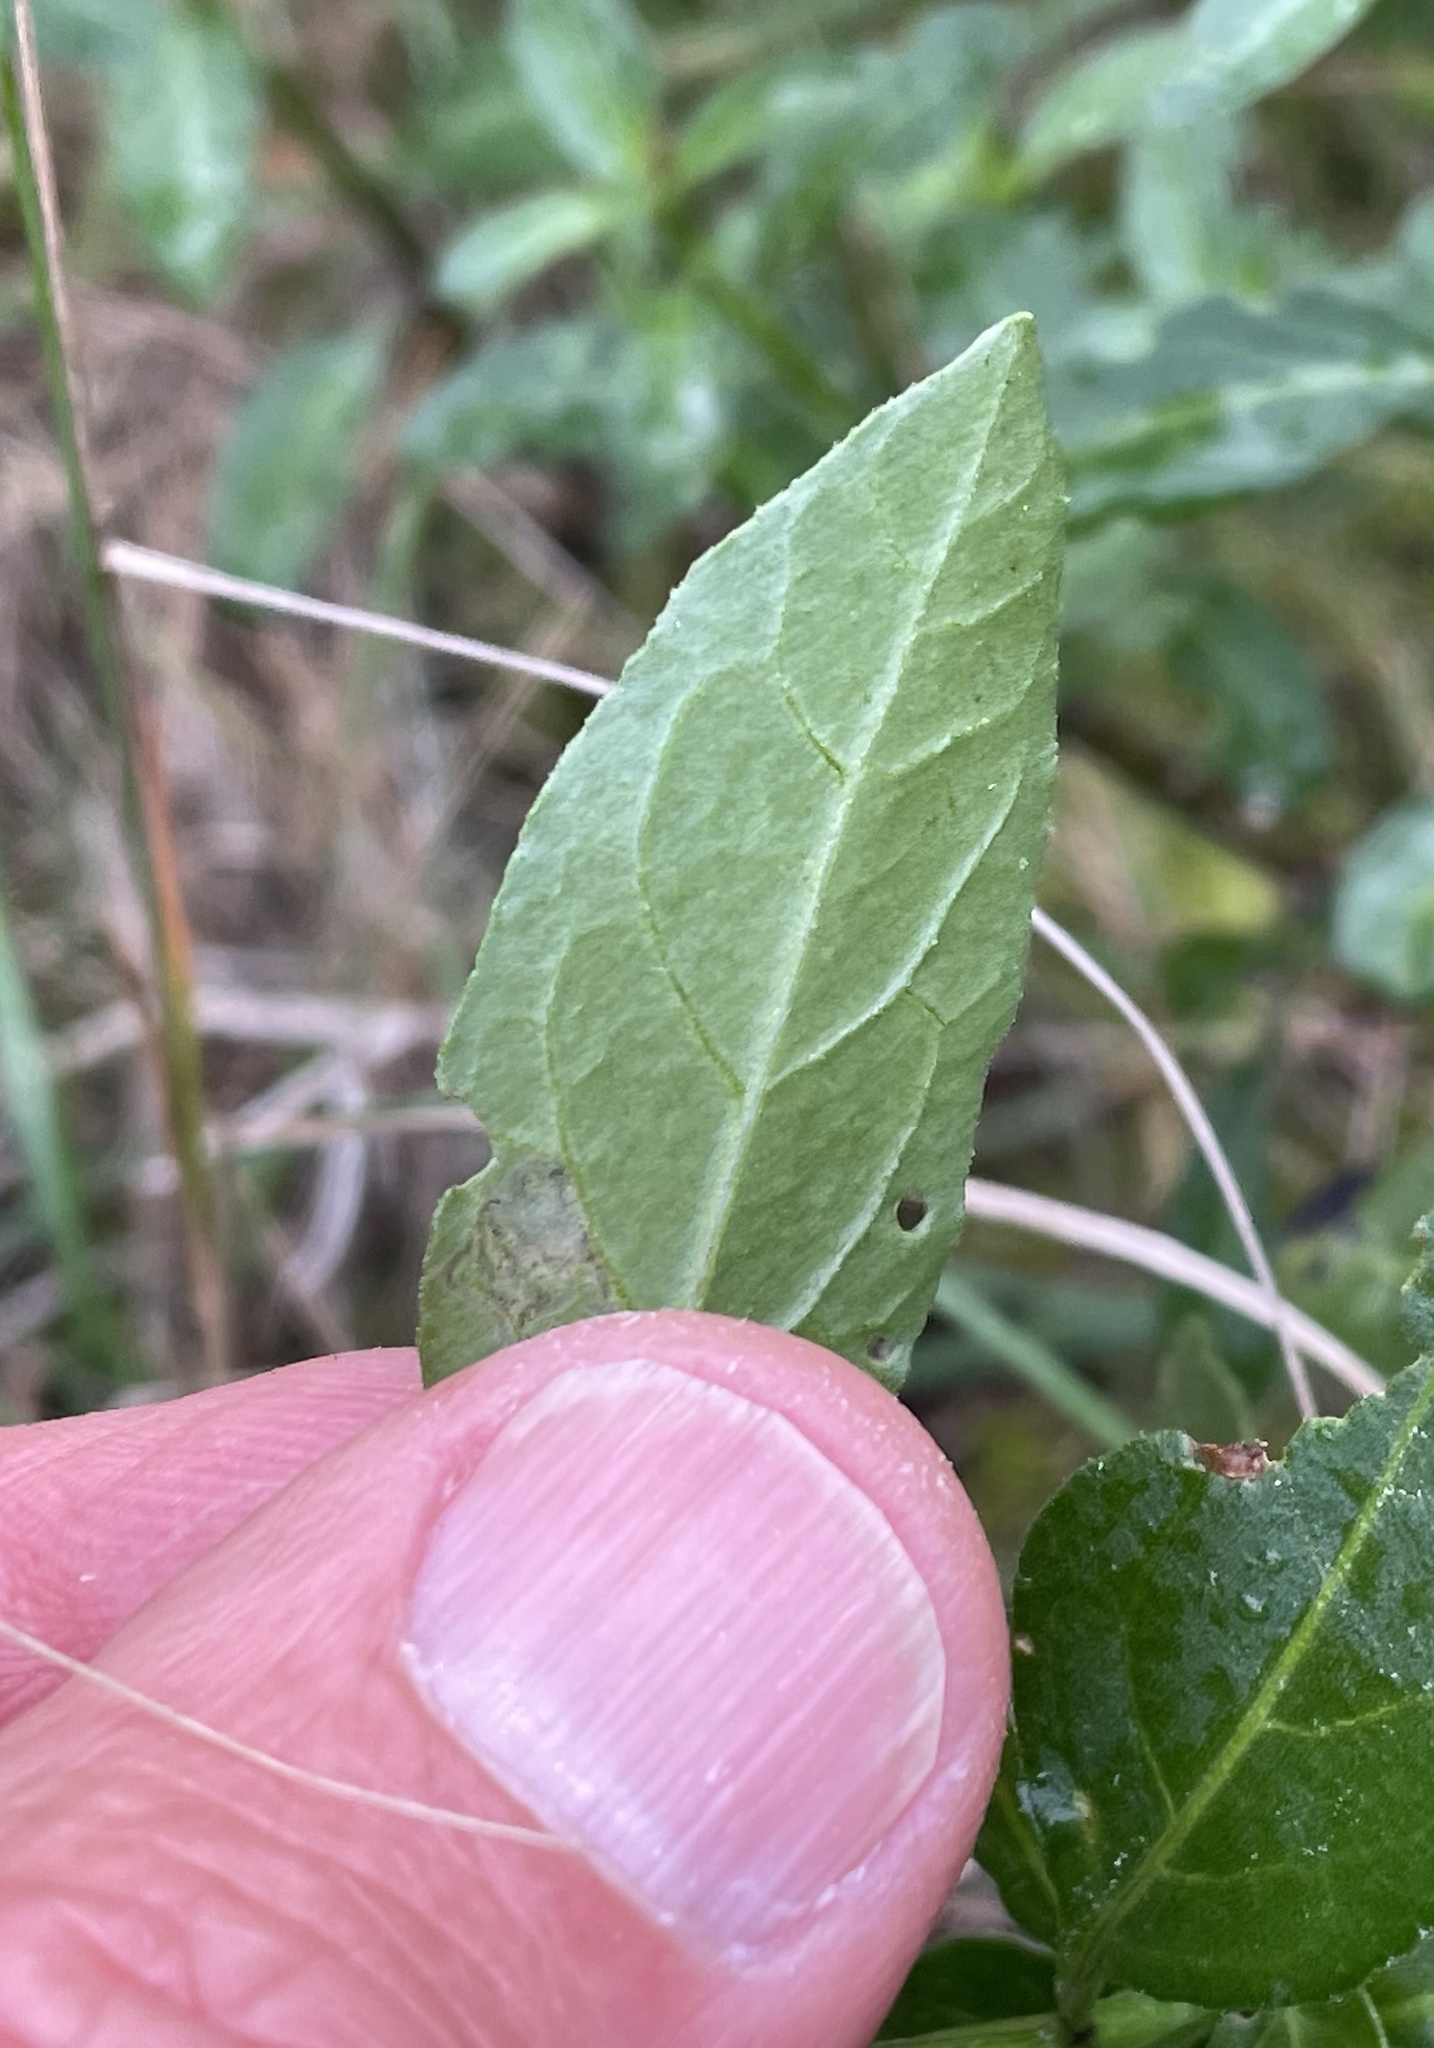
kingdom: Plantae
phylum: Tracheophyta
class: Magnoliopsida
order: Solanales
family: Solanaceae
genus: Solanum
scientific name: Solanum umbelliferum
